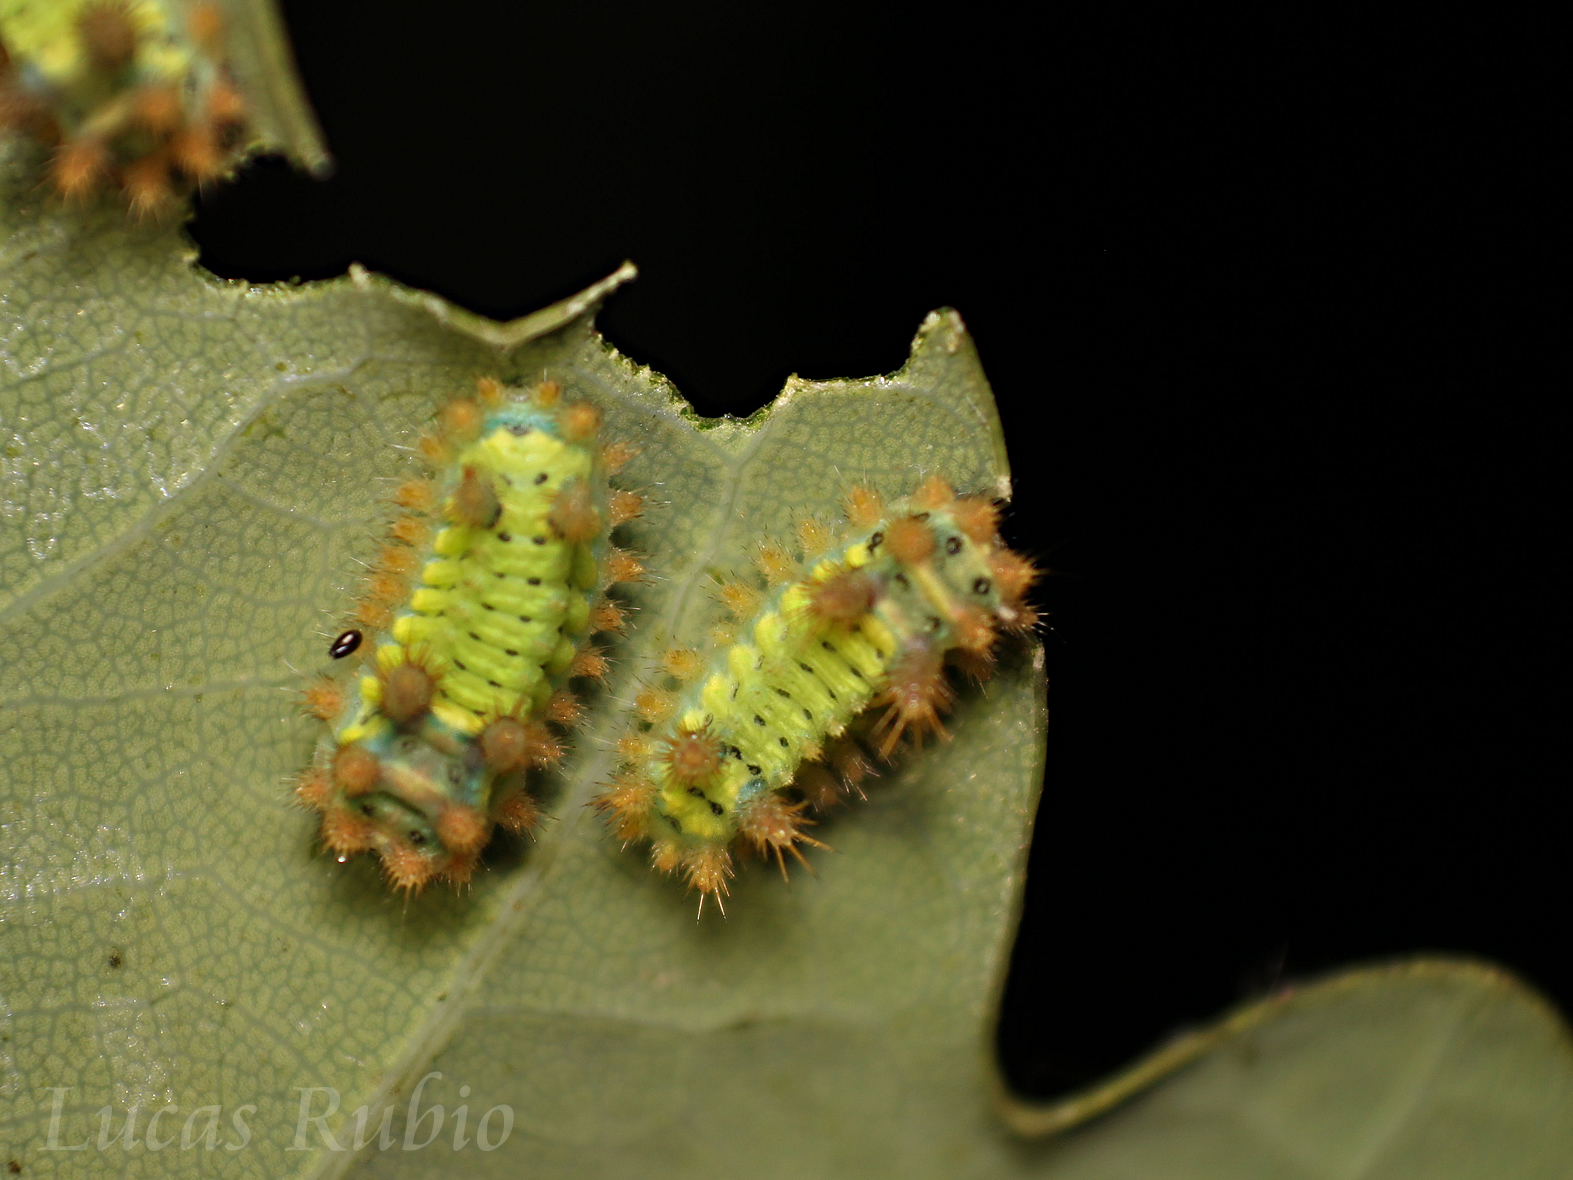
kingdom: Animalia
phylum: Arthropoda
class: Insecta
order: Lepidoptera
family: Limacodidae
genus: Acharia
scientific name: Acharia
